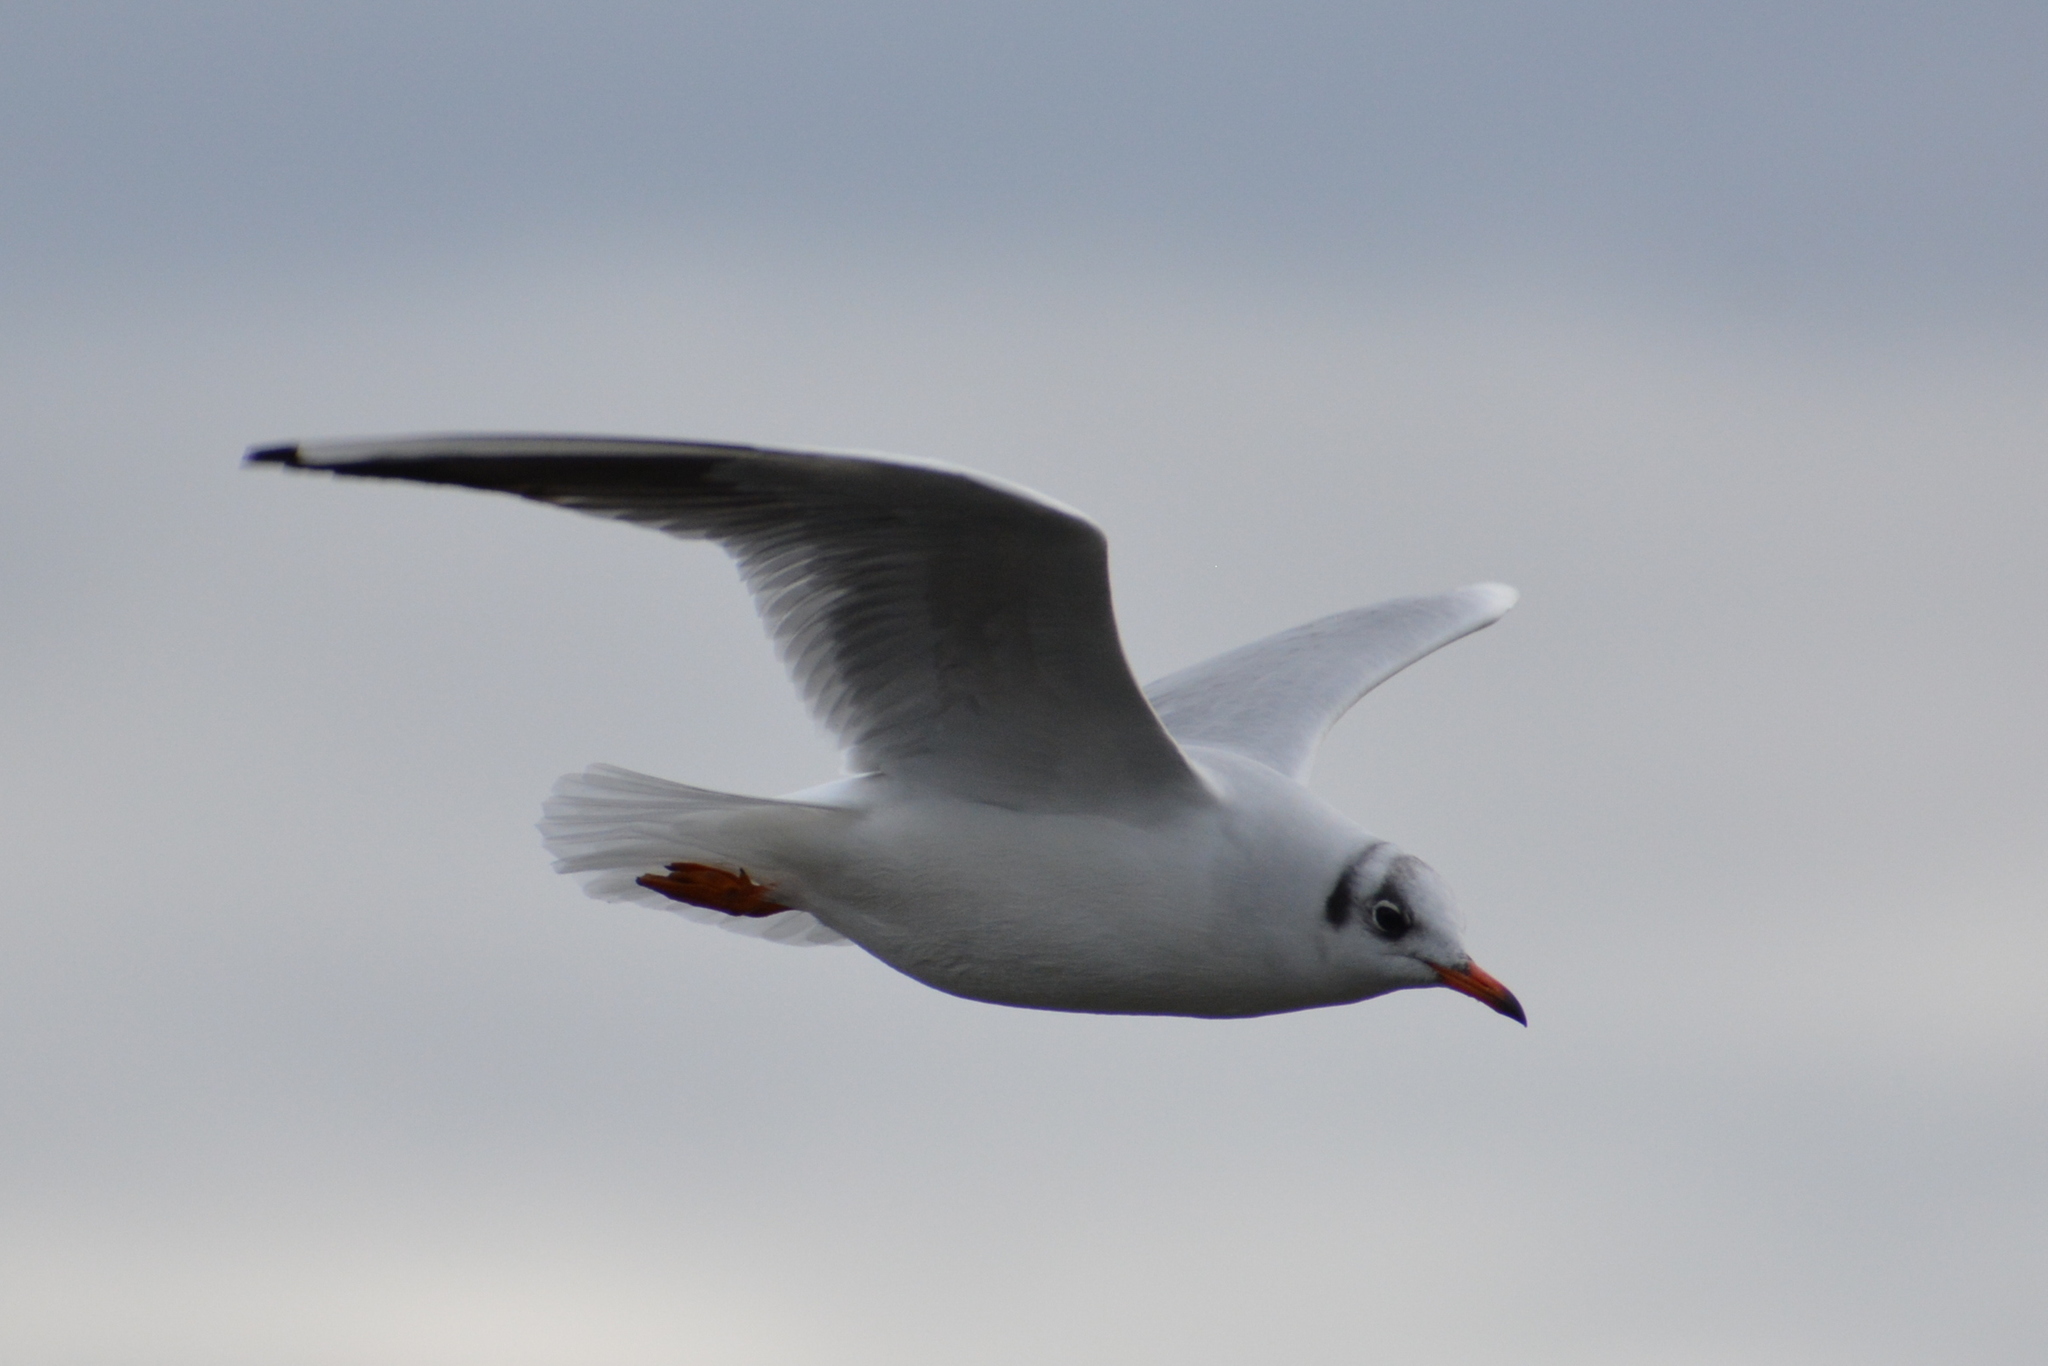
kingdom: Animalia
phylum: Chordata
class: Aves
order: Charadriiformes
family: Laridae
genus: Chroicocephalus
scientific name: Chroicocephalus ridibundus
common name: Black-headed gull
